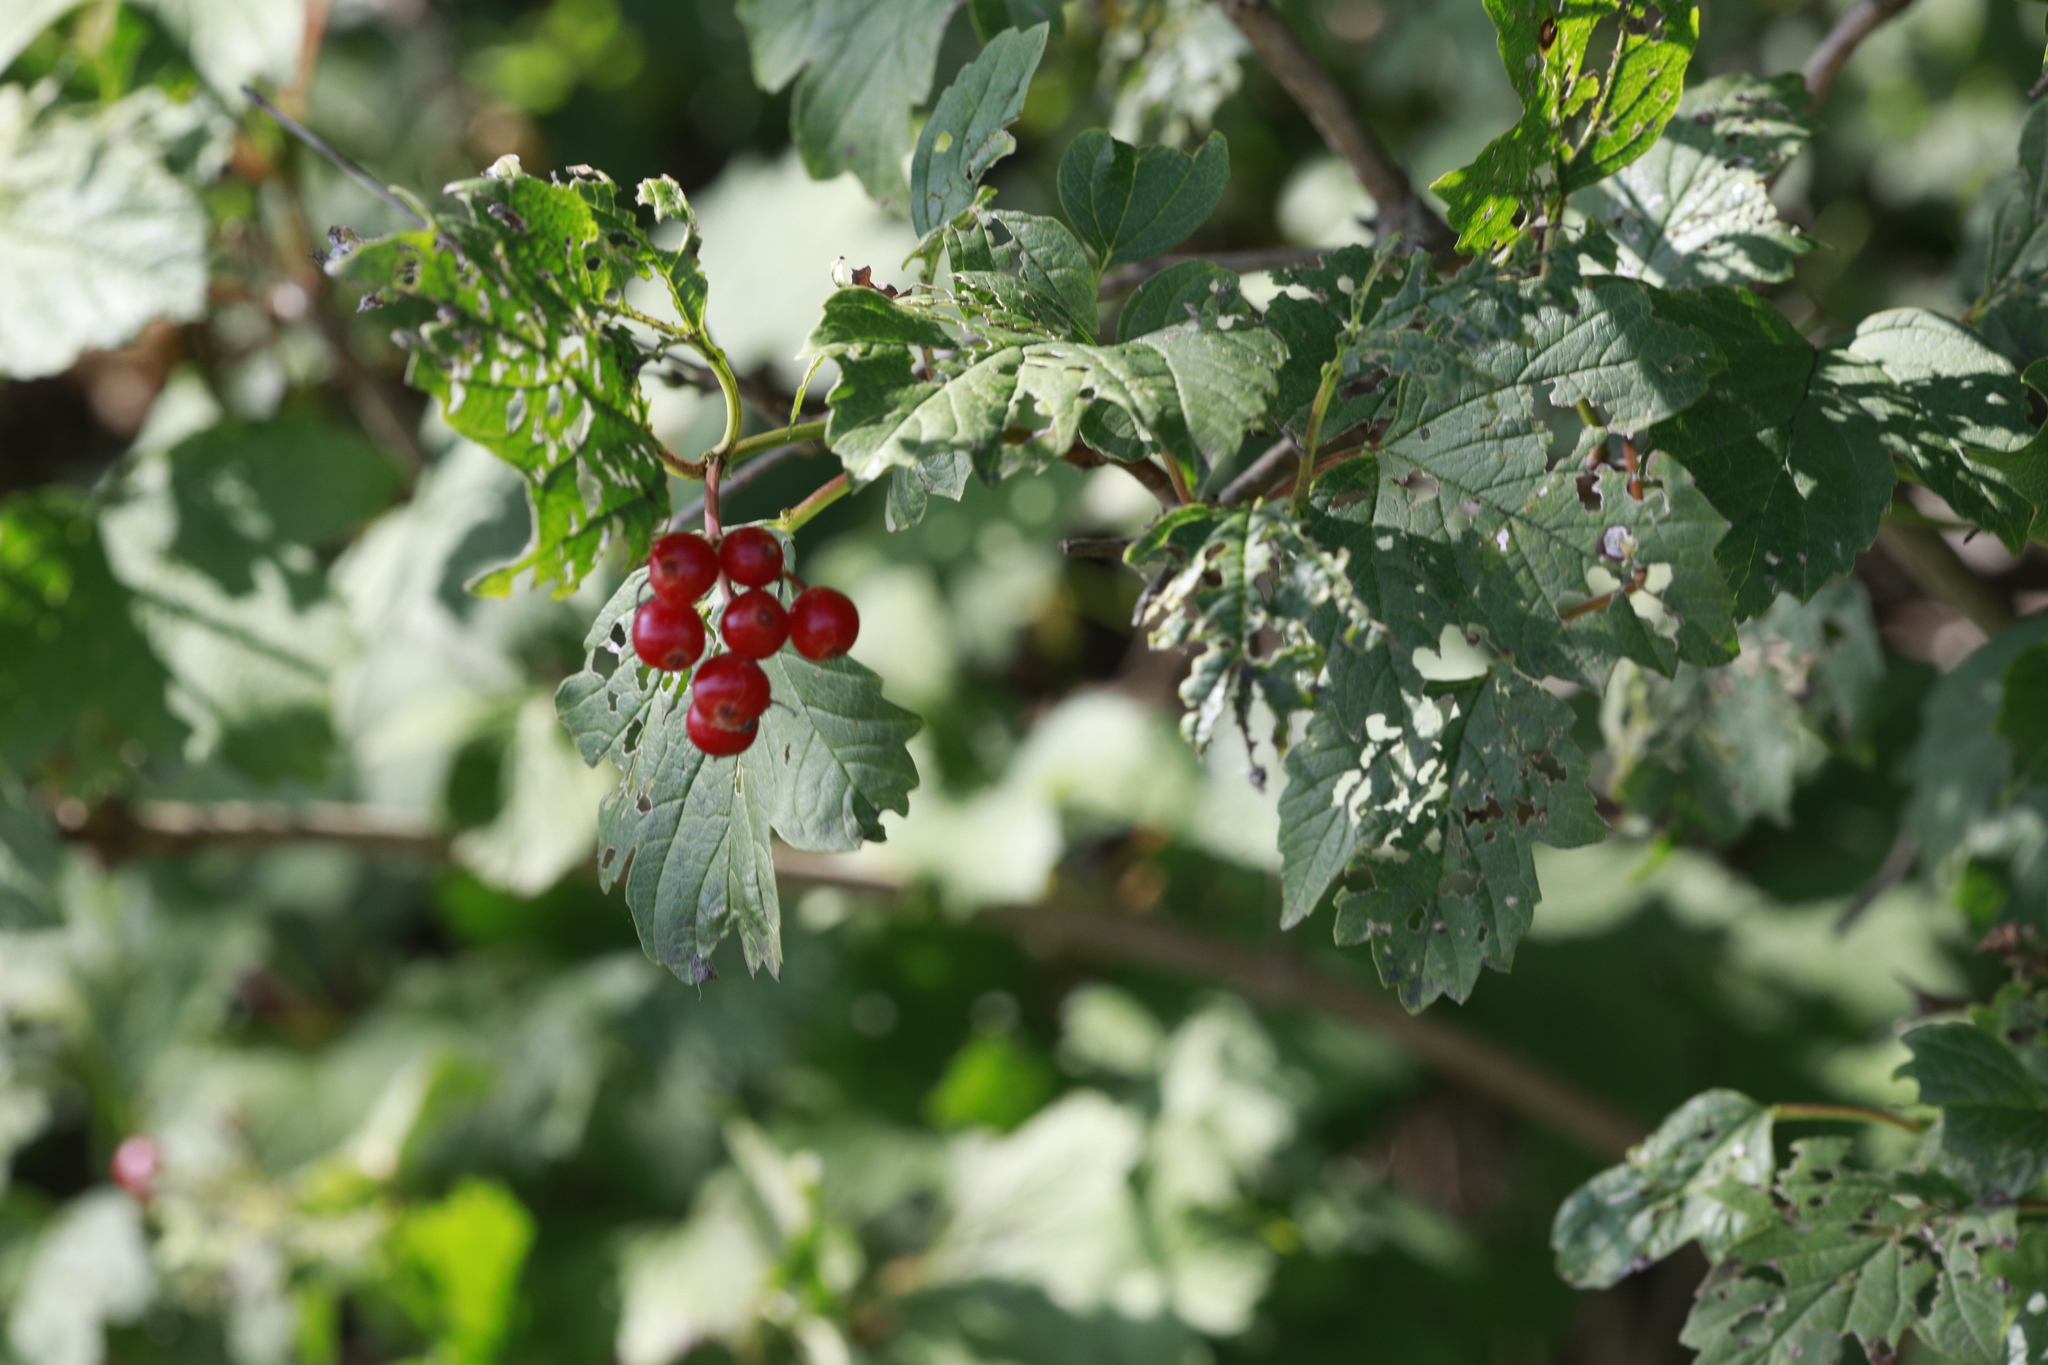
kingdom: Plantae
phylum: Tracheophyta
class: Magnoliopsida
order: Dipsacales
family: Viburnaceae
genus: Viburnum
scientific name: Viburnum opulus
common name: Guelder-rose
